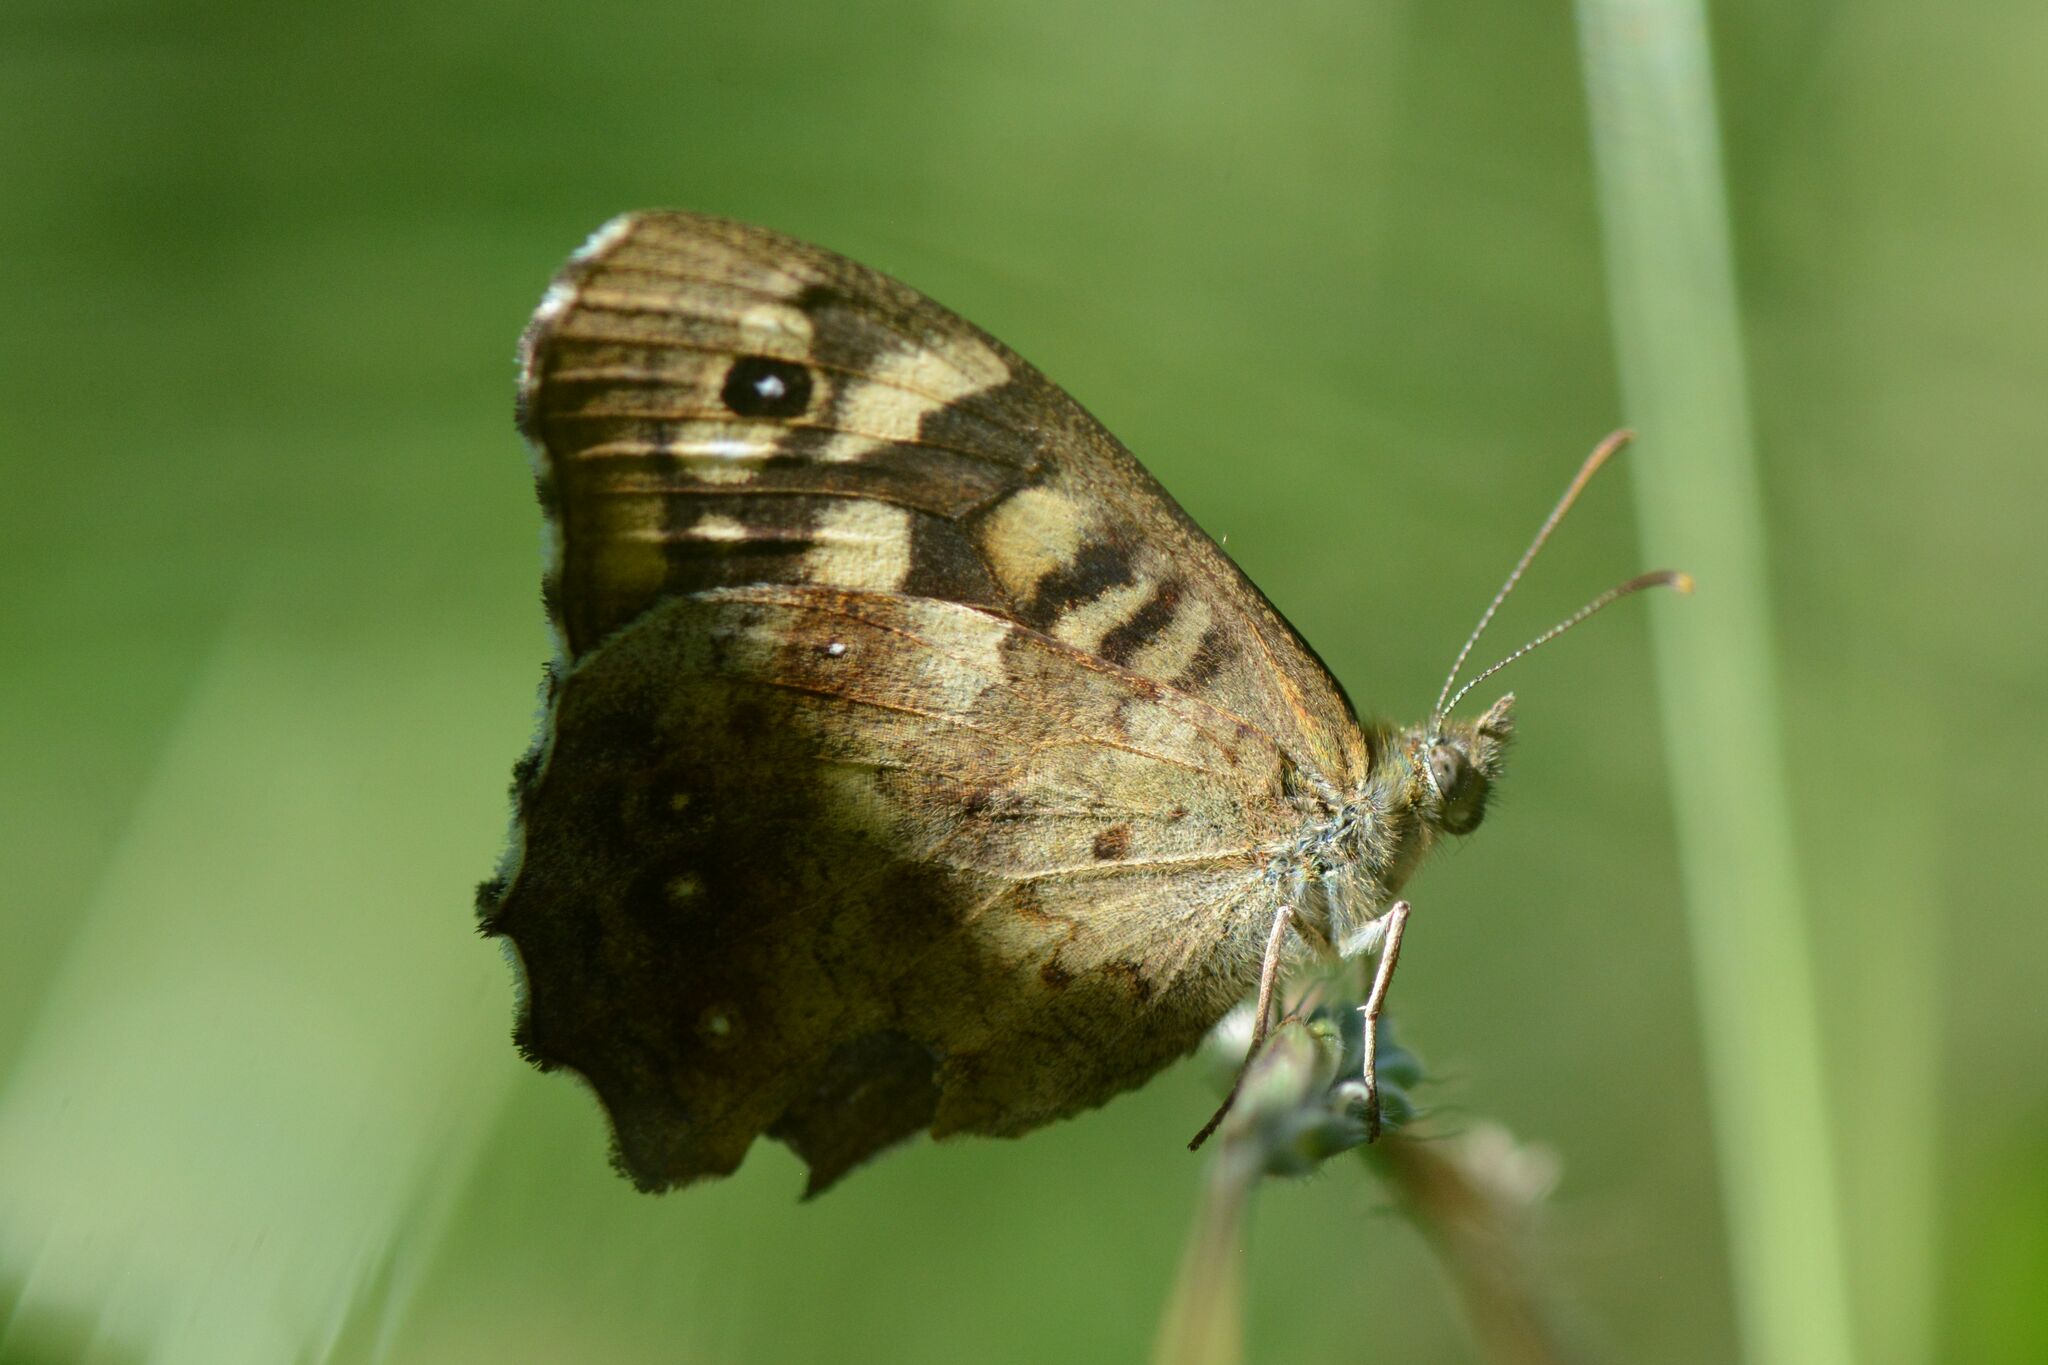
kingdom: Animalia
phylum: Arthropoda
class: Insecta
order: Lepidoptera
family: Nymphalidae
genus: Pararge
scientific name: Pararge aegeria
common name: Speckled wood
